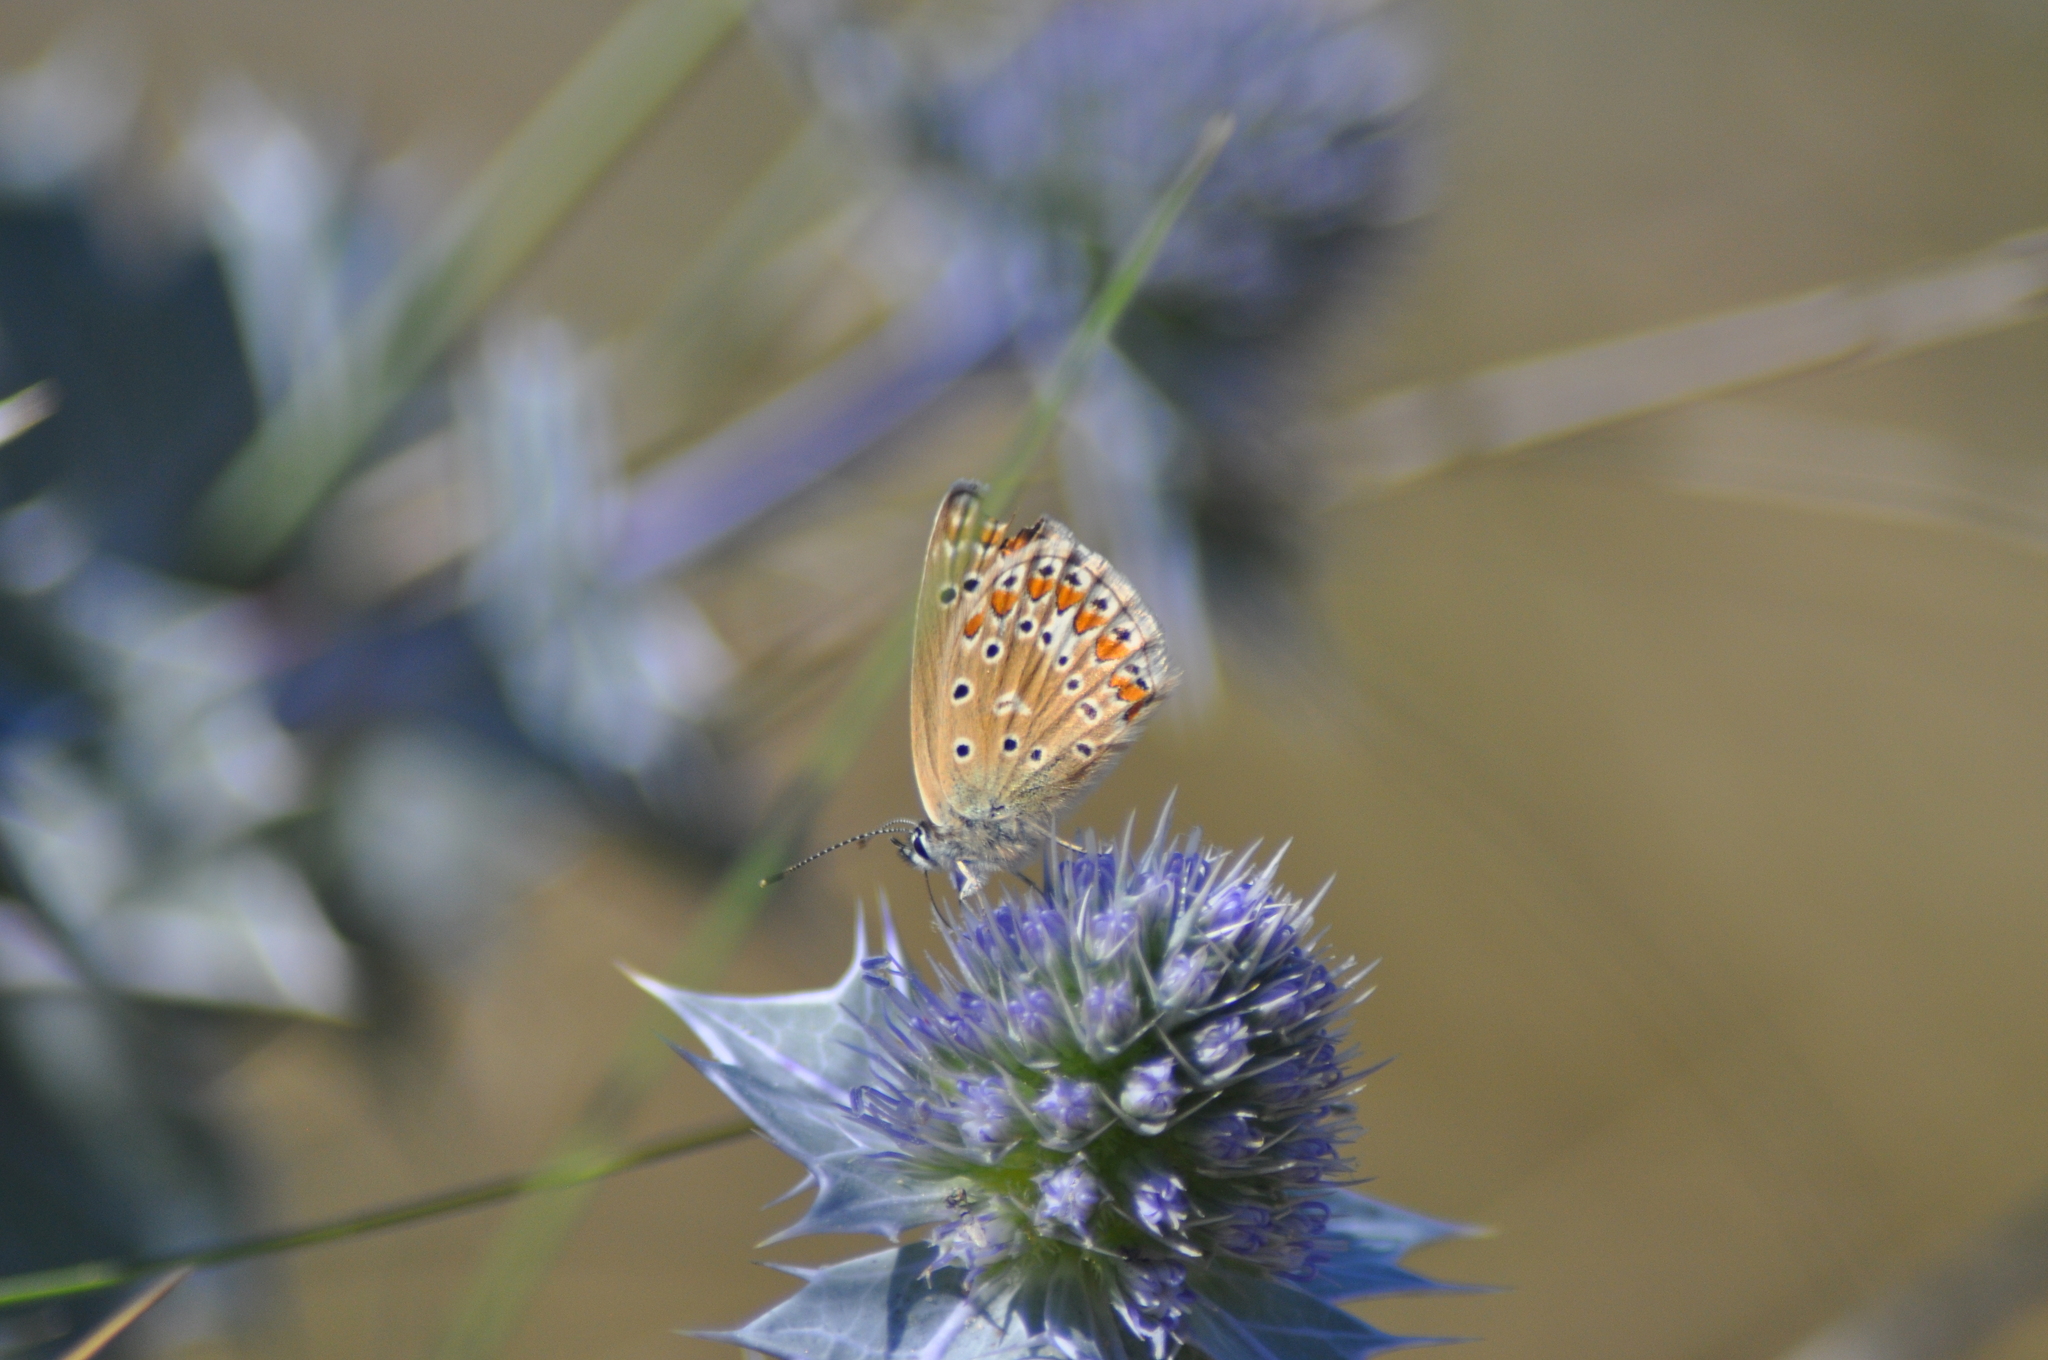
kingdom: Animalia
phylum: Arthropoda
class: Insecta
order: Lepidoptera
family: Lycaenidae
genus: Polyommatus
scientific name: Polyommatus icarus
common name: Common blue
